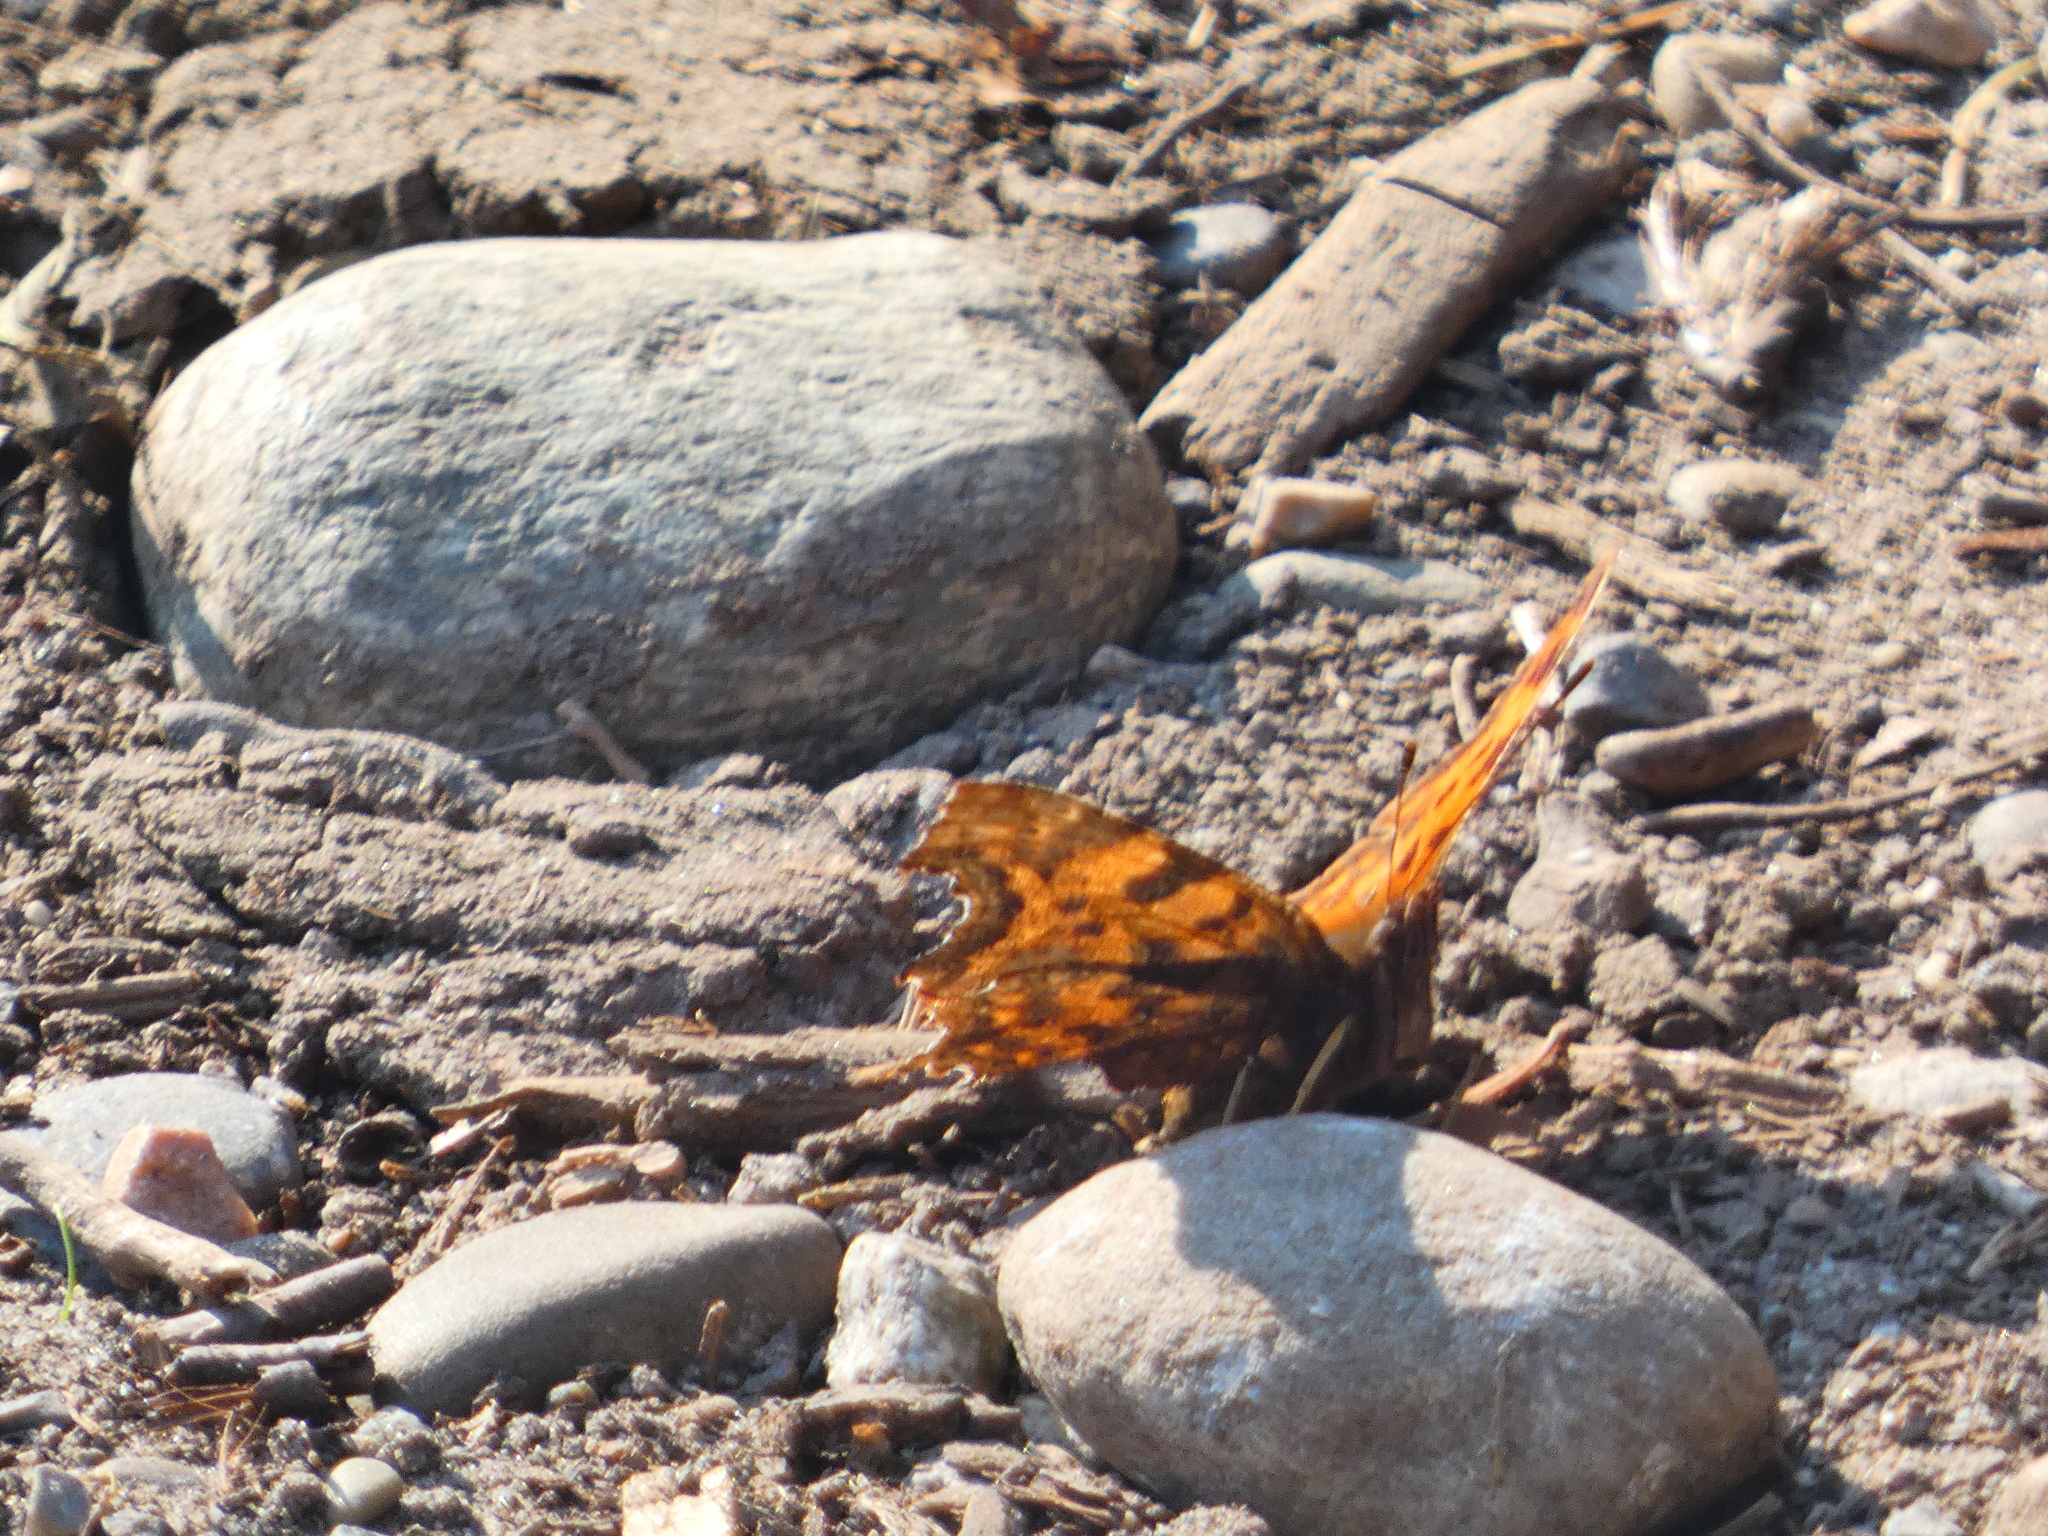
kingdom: Animalia
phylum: Arthropoda
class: Insecta
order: Lepidoptera
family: Nymphalidae
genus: Polygonia
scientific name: Polygonia c-album
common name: Comma
